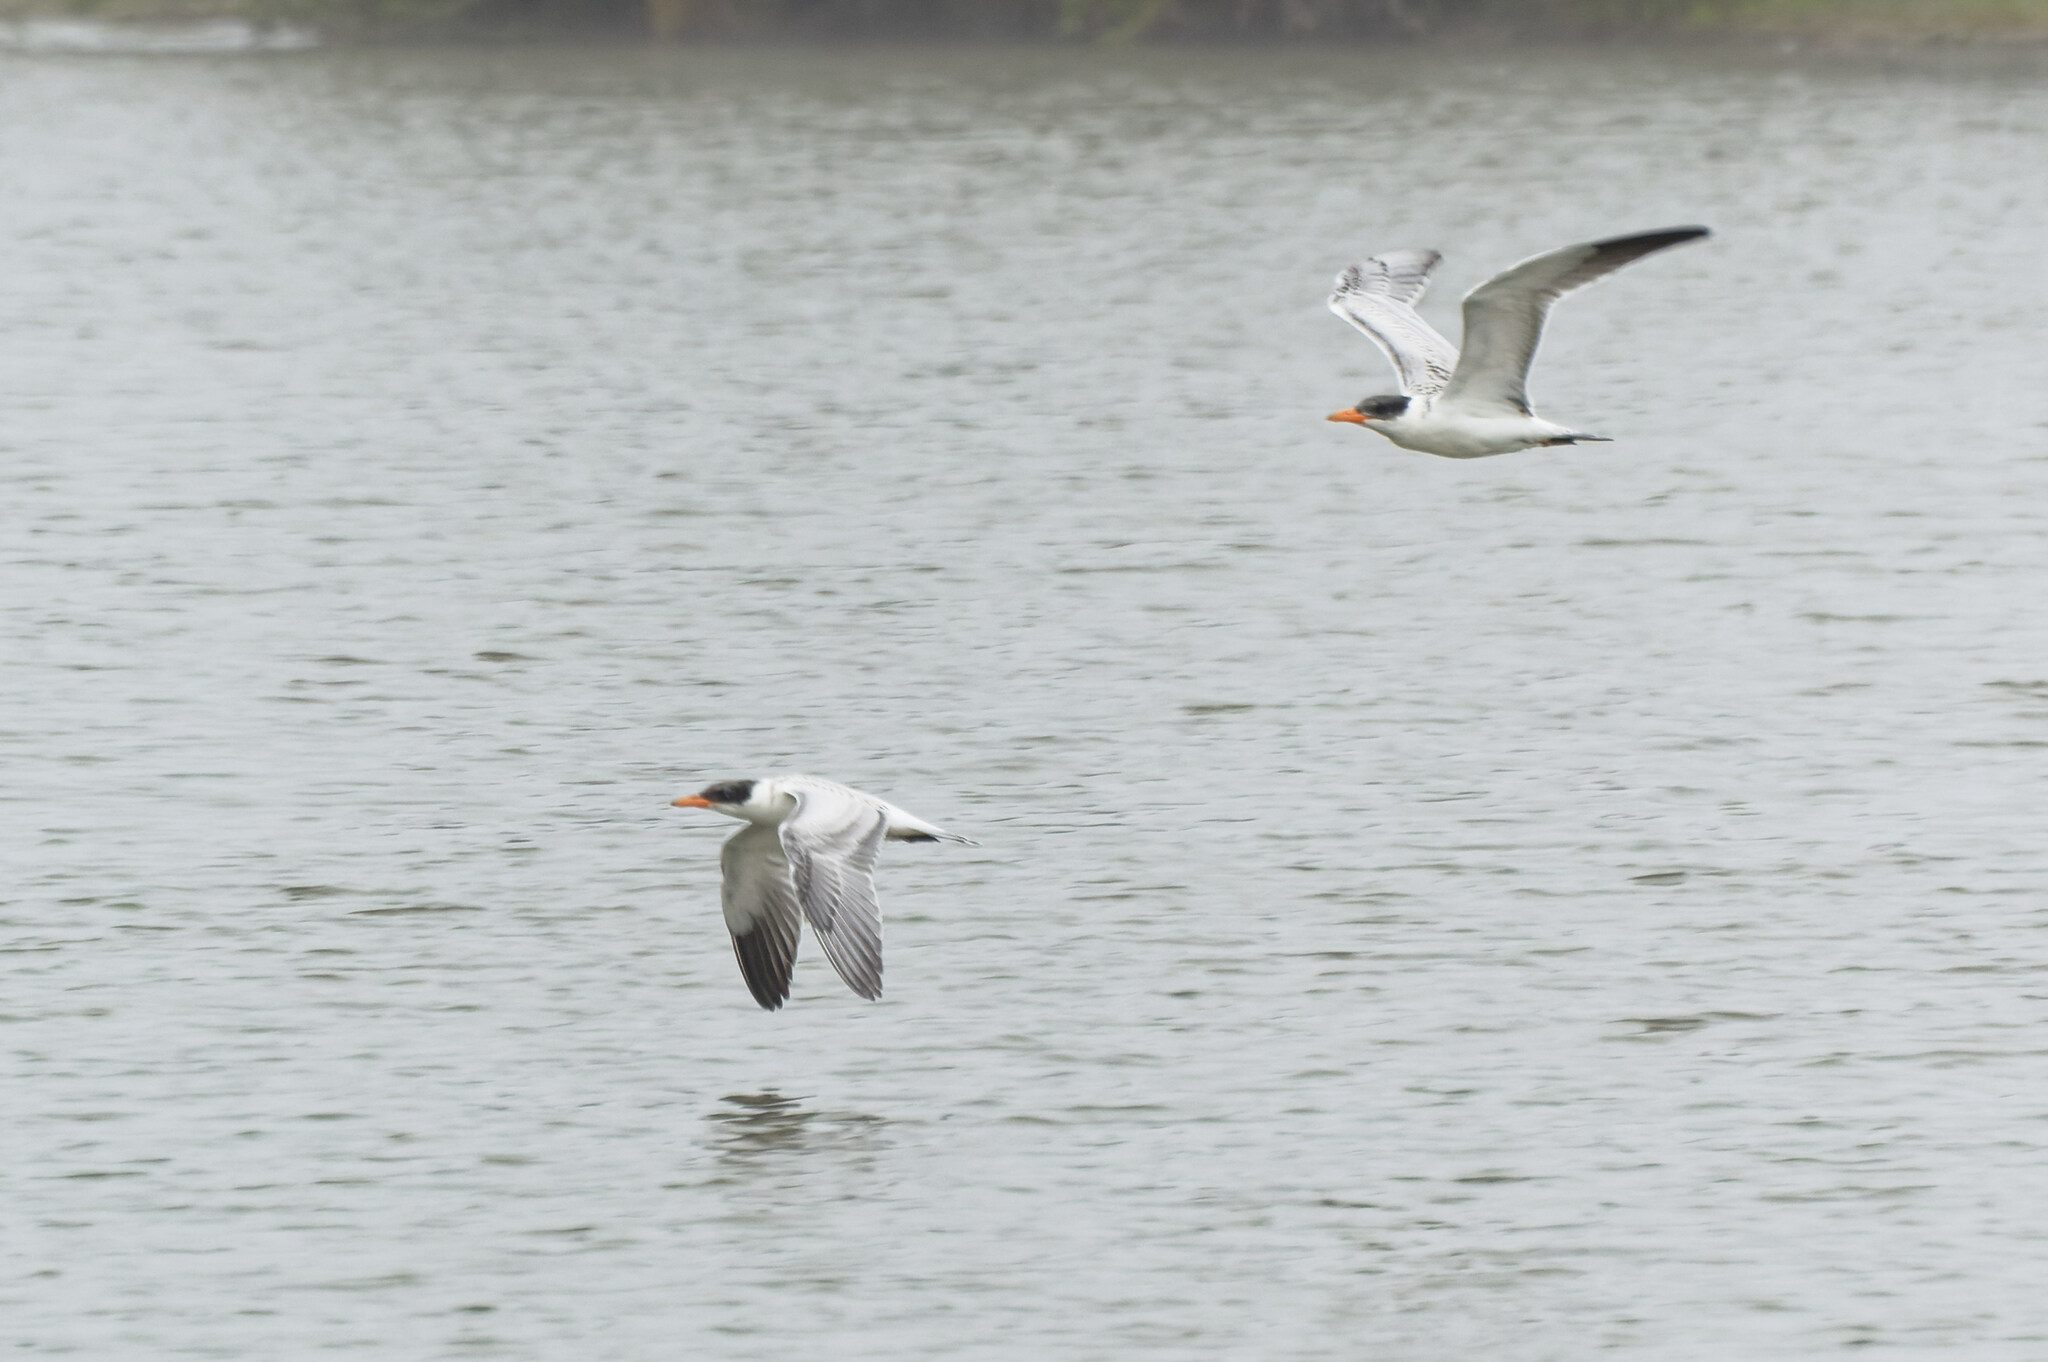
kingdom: Animalia
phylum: Chordata
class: Aves
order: Charadriiformes
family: Laridae
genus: Hydroprogne
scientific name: Hydroprogne caspia
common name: Caspian tern
